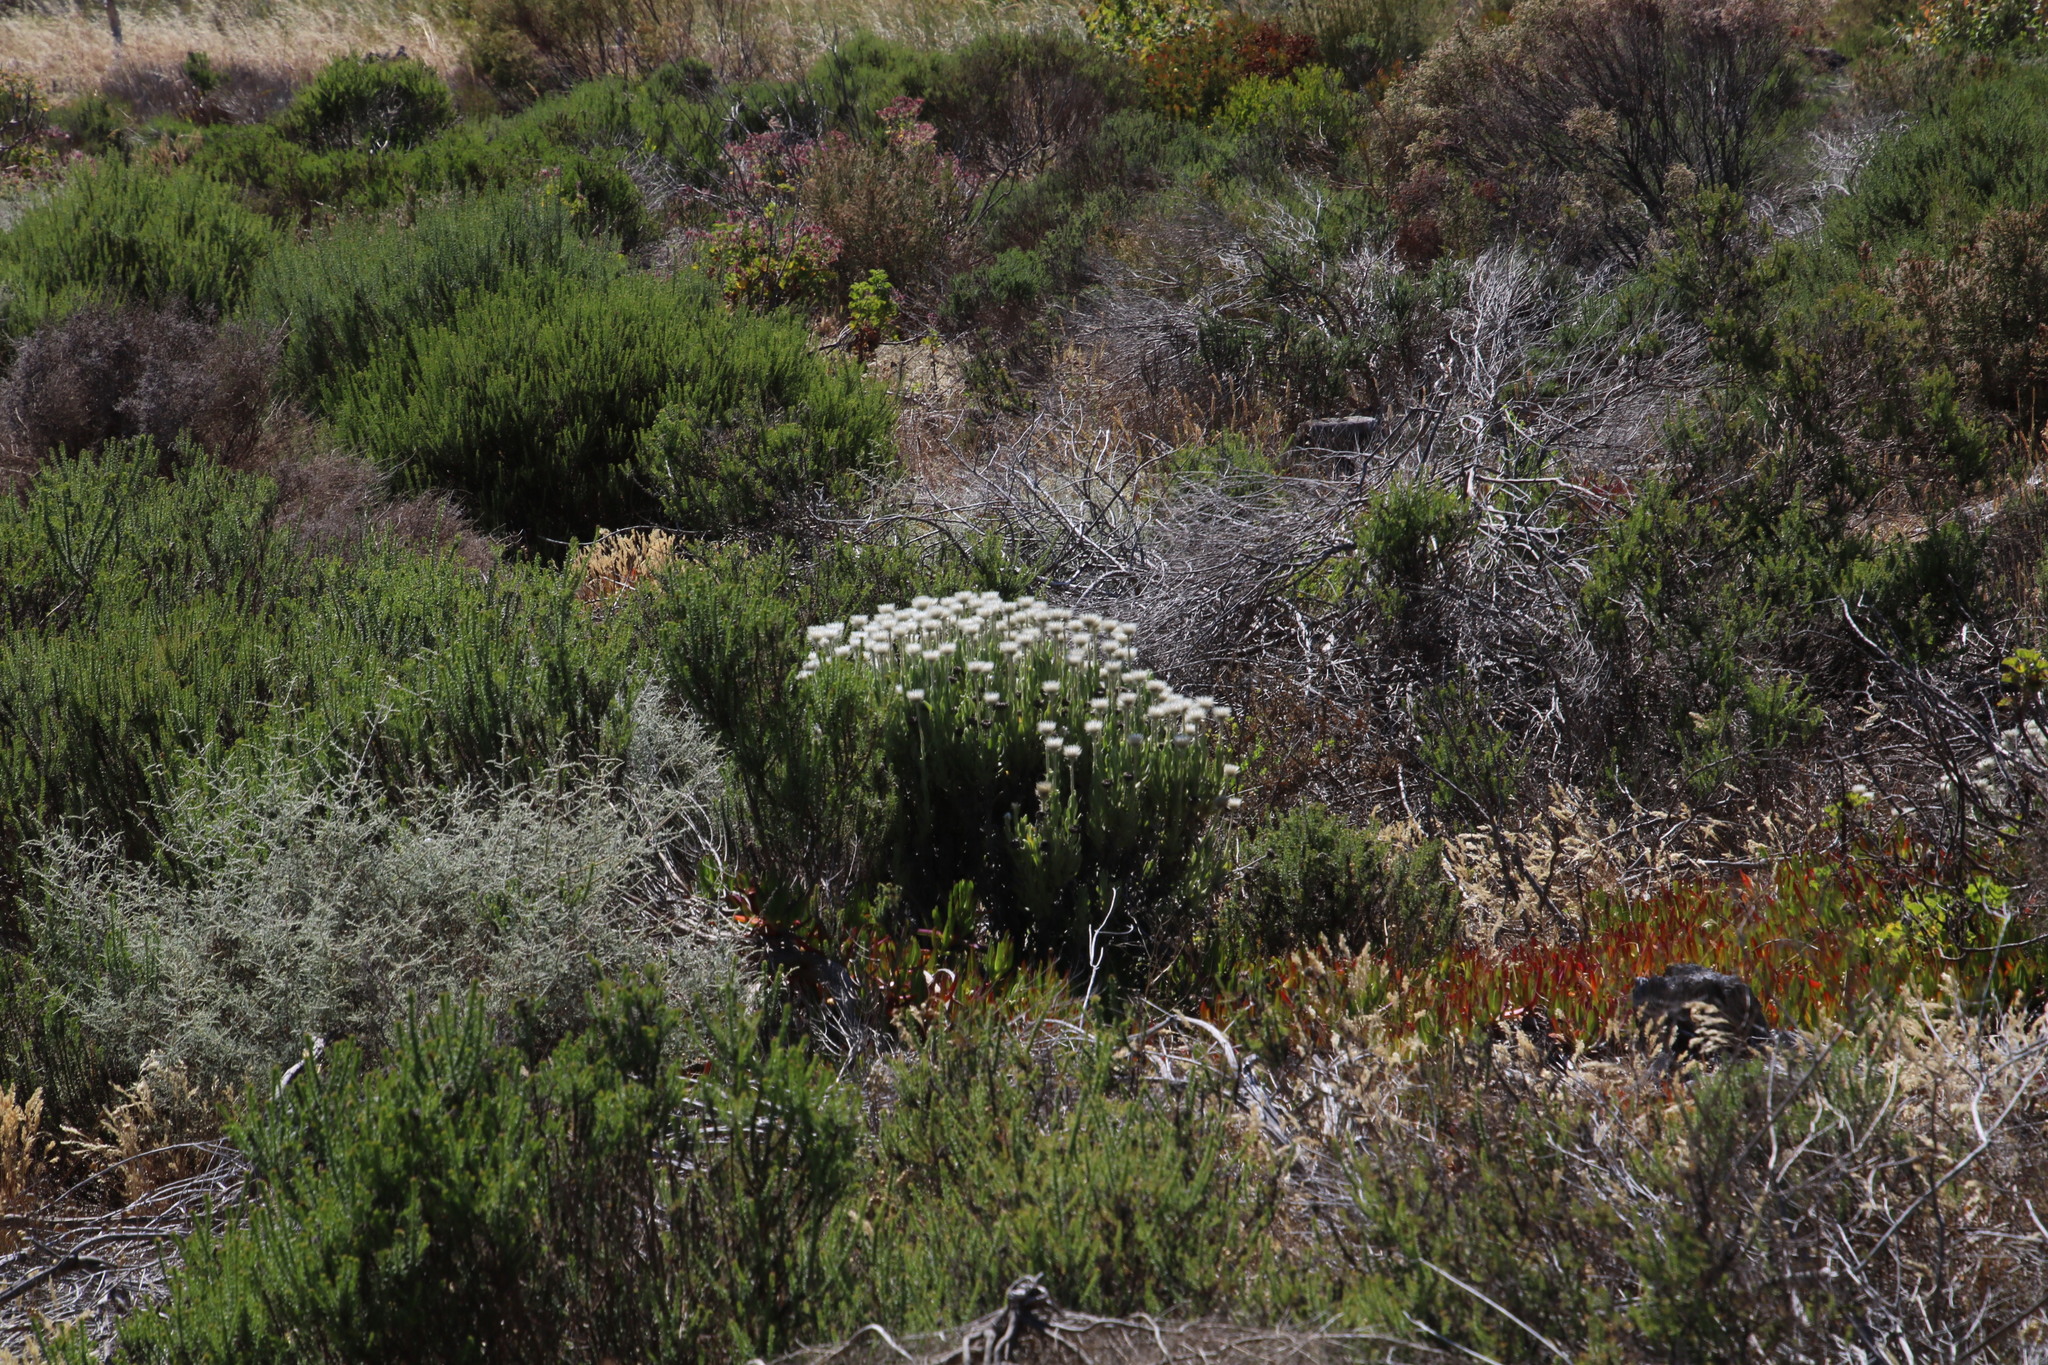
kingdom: Plantae
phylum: Tracheophyta
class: Magnoliopsida
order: Asterales
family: Asteraceae
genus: Syncarpha
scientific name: Syncarpha vestita
